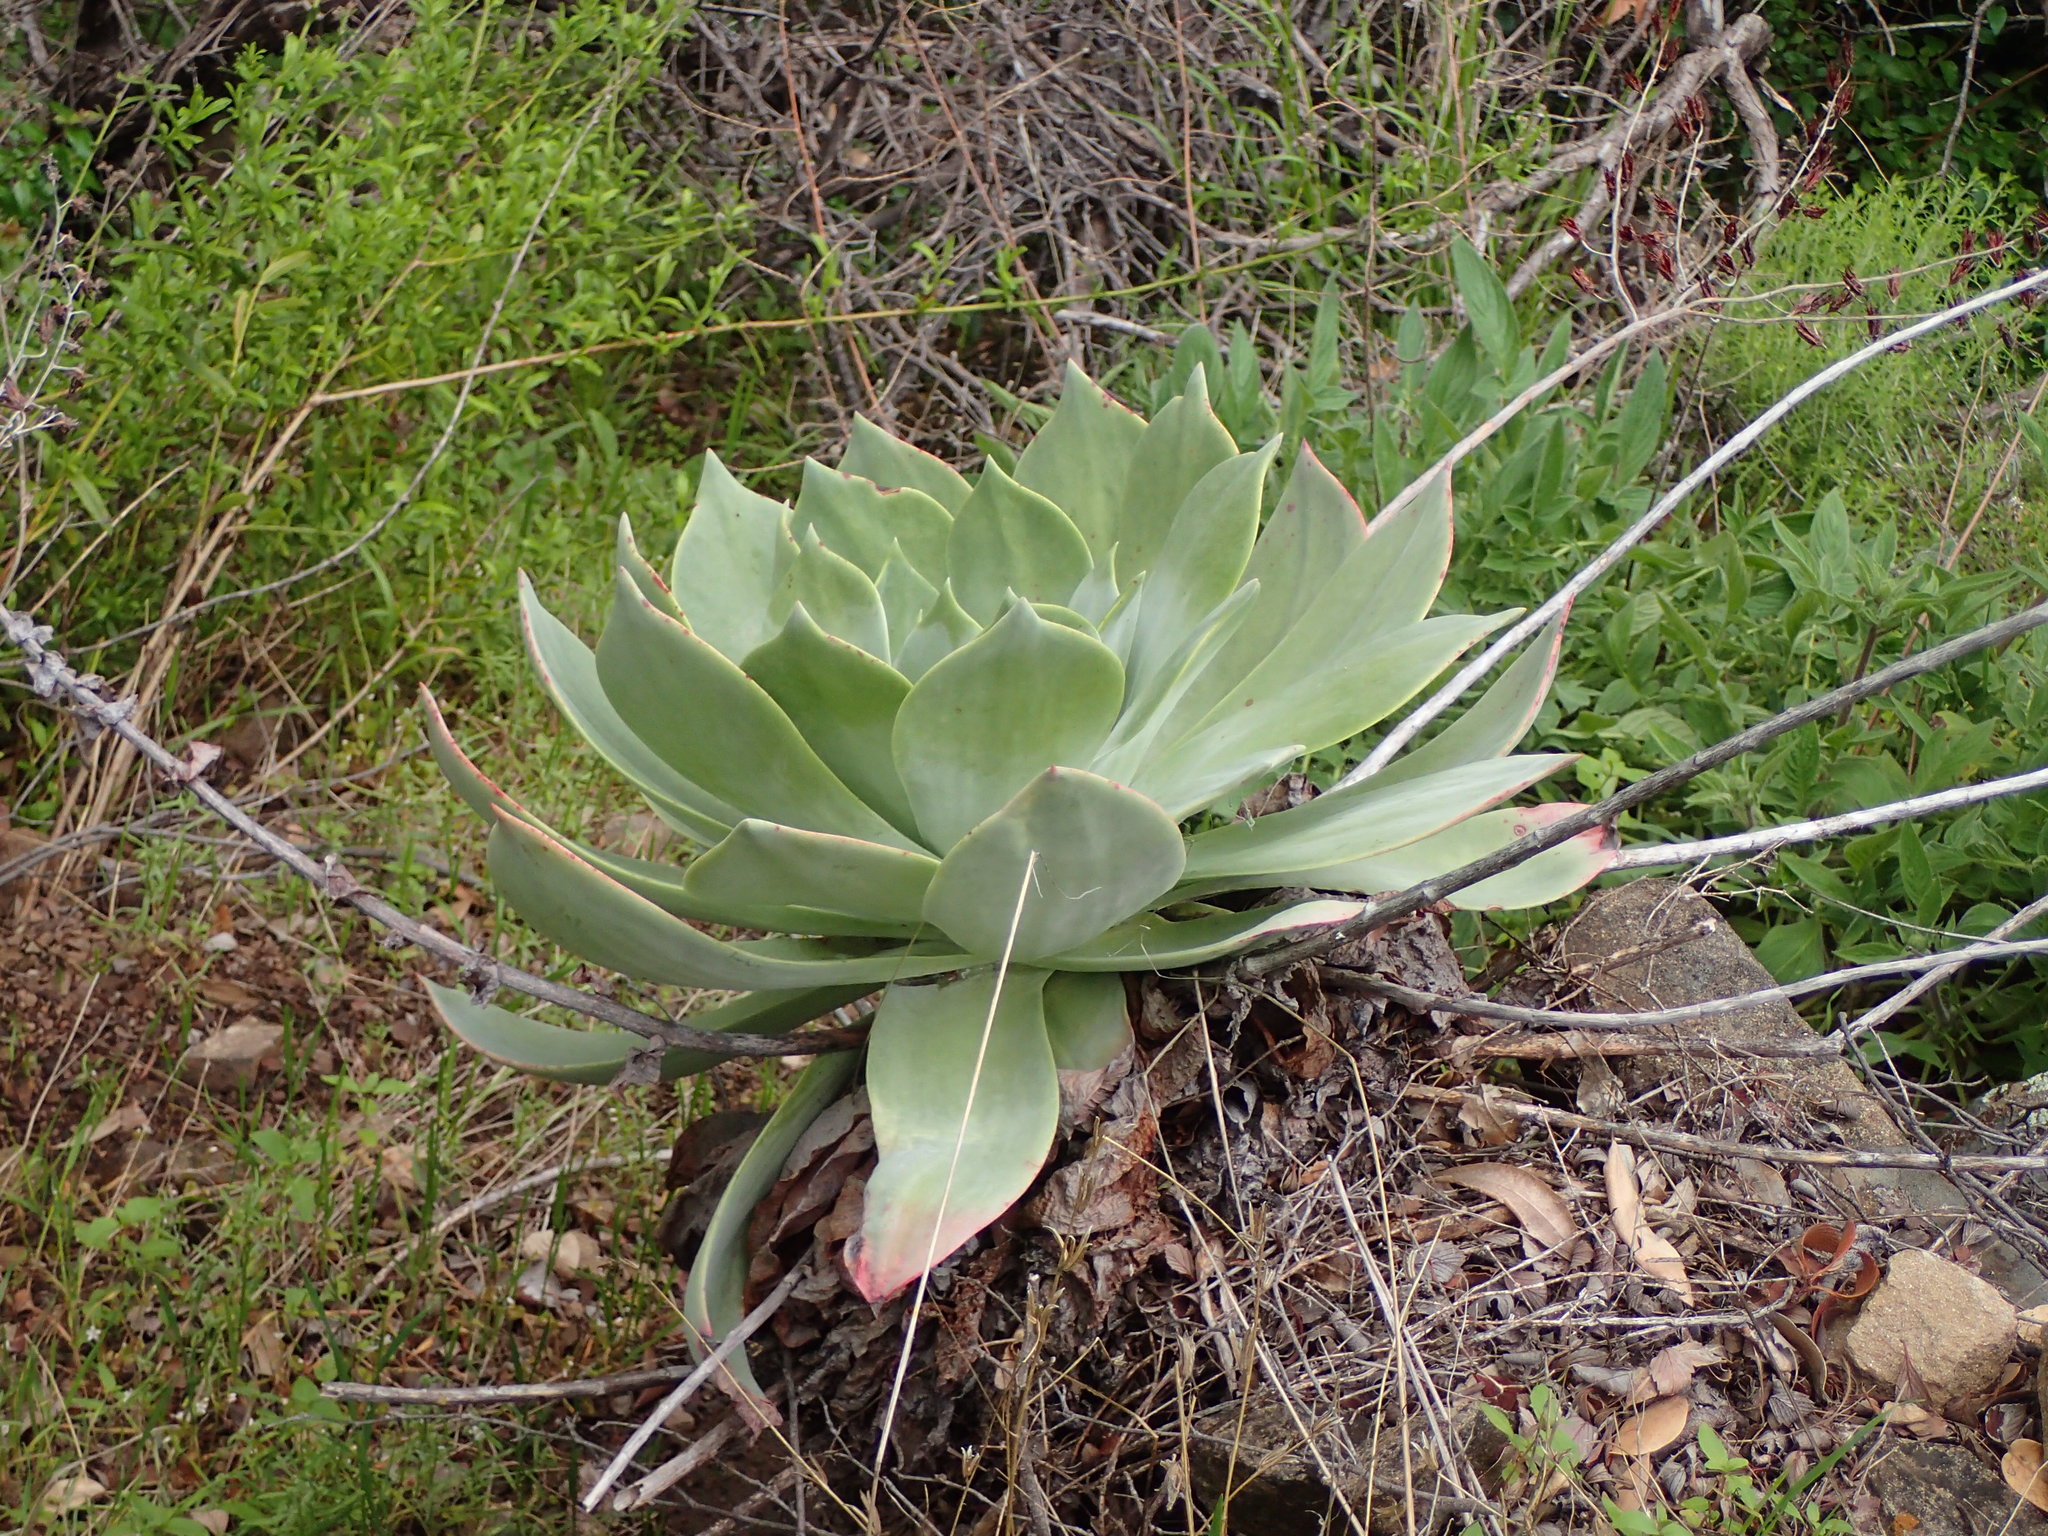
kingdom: Plantae
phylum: Tracheophyta
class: Magnoliopsida
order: Saxifragales
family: Crassulaceae
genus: Dudleya
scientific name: Dudleya pulverulenta
